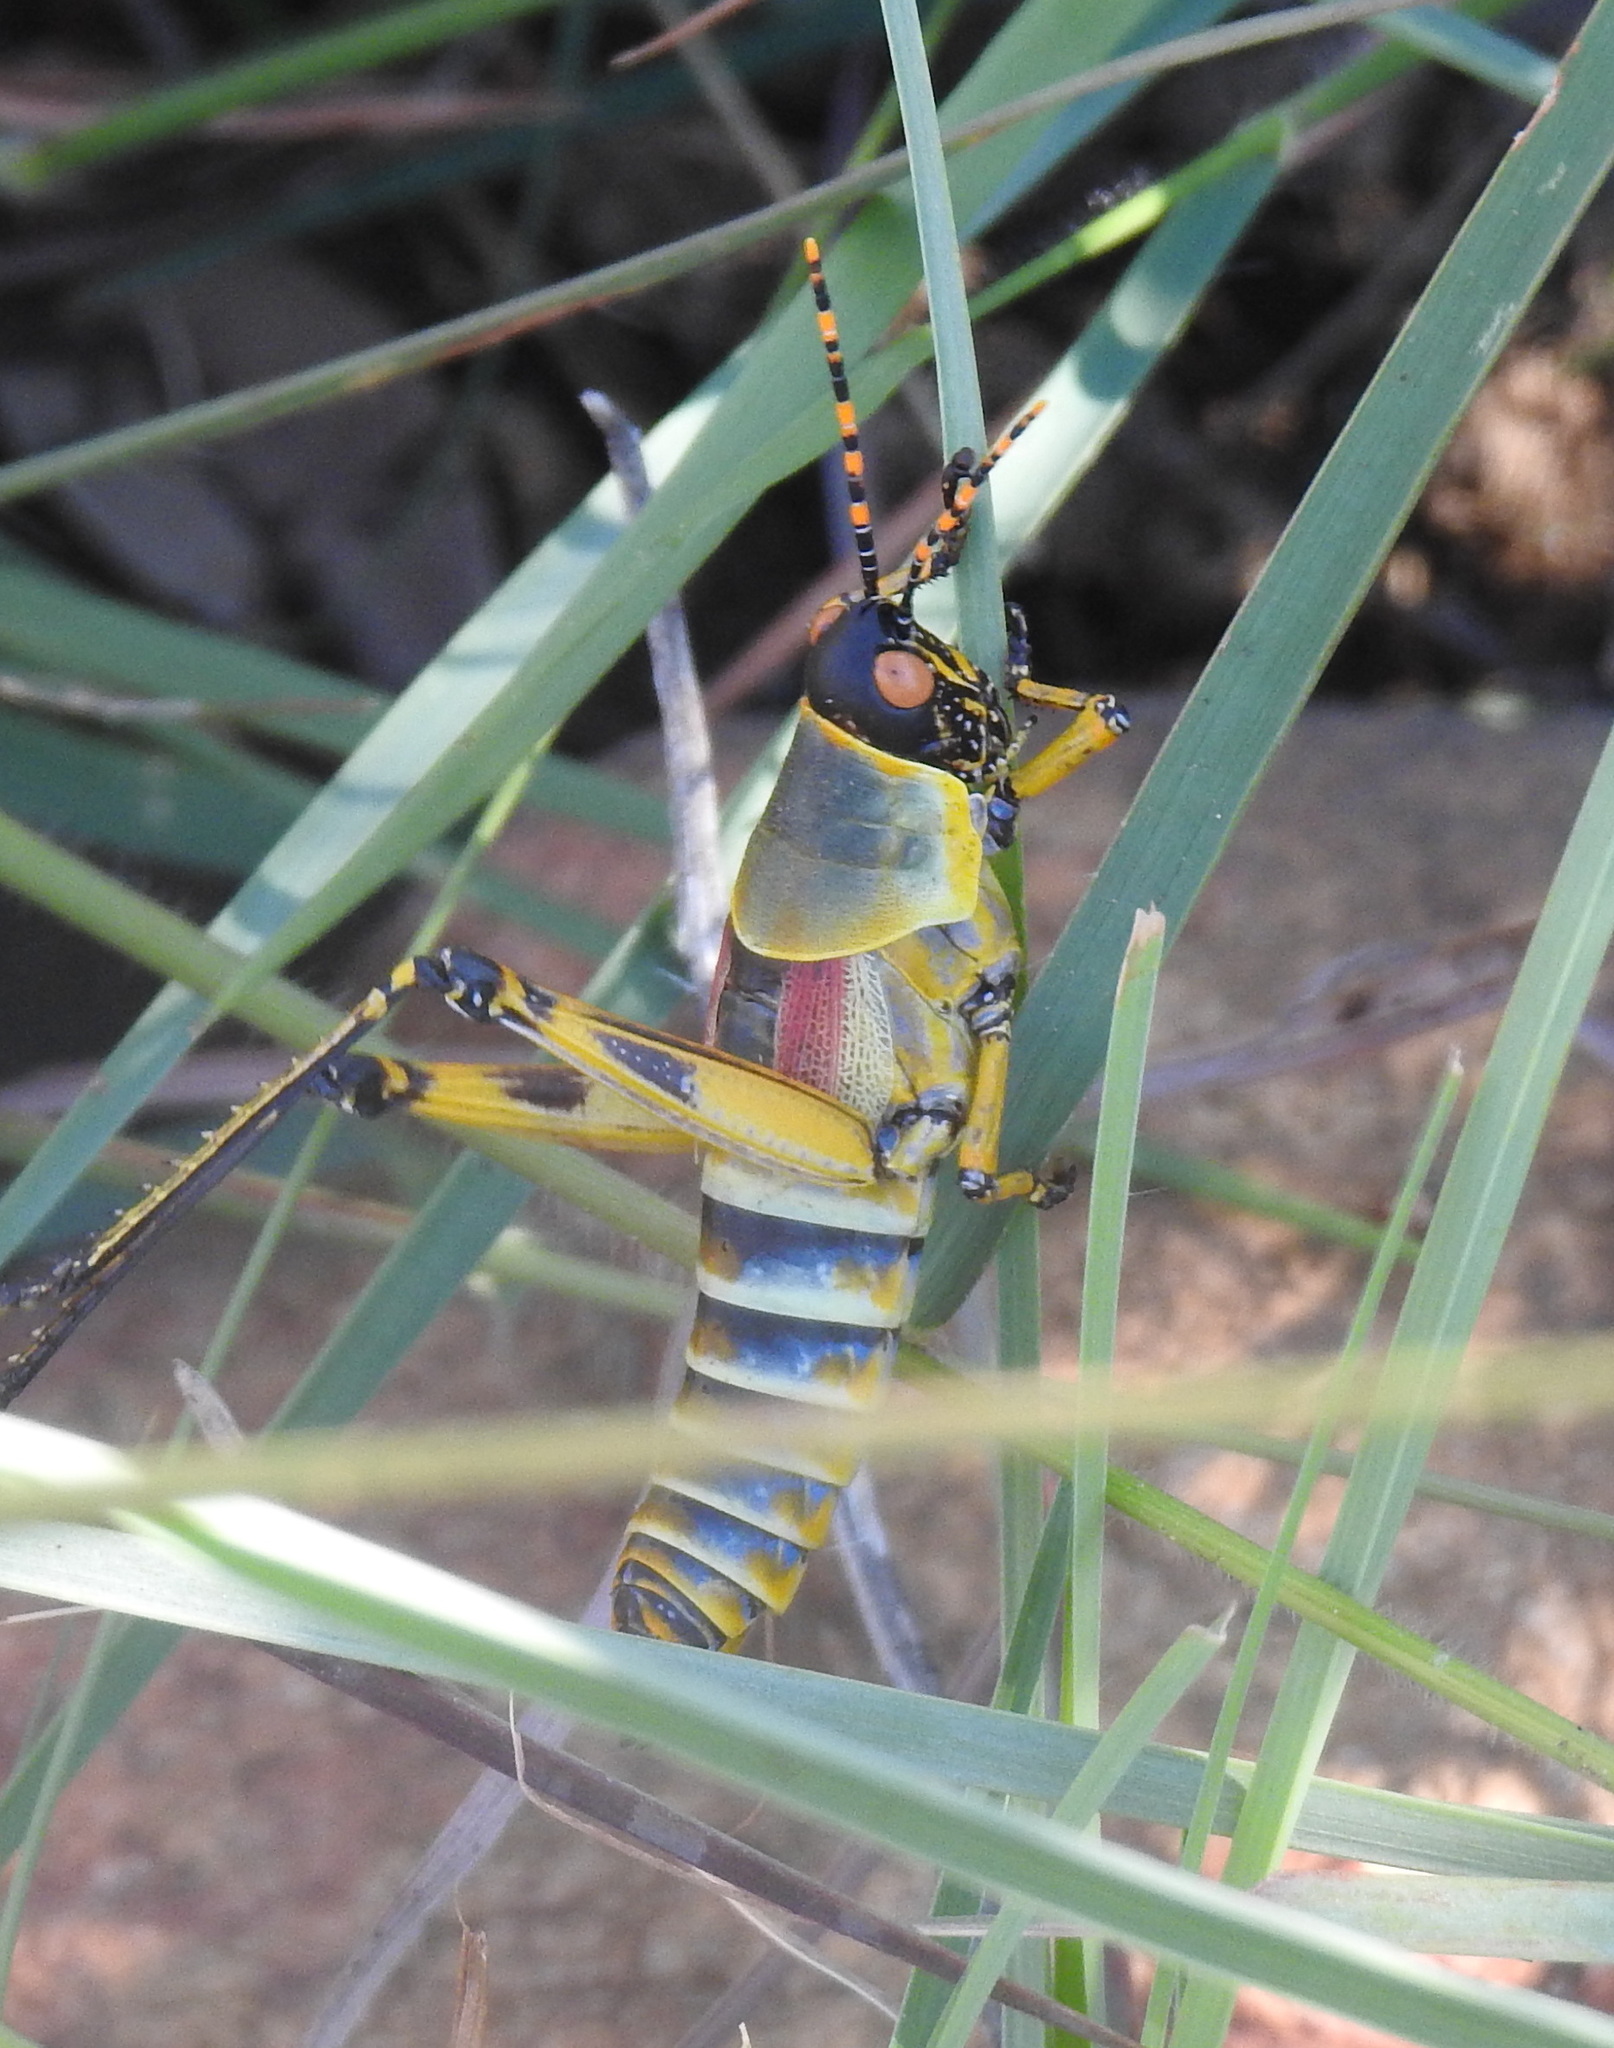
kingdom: Animalia
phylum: Arthropoda
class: Insecta
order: Orthoptera
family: Pyrgomorphidae
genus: Zonocerus
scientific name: Zonocerus elegans
